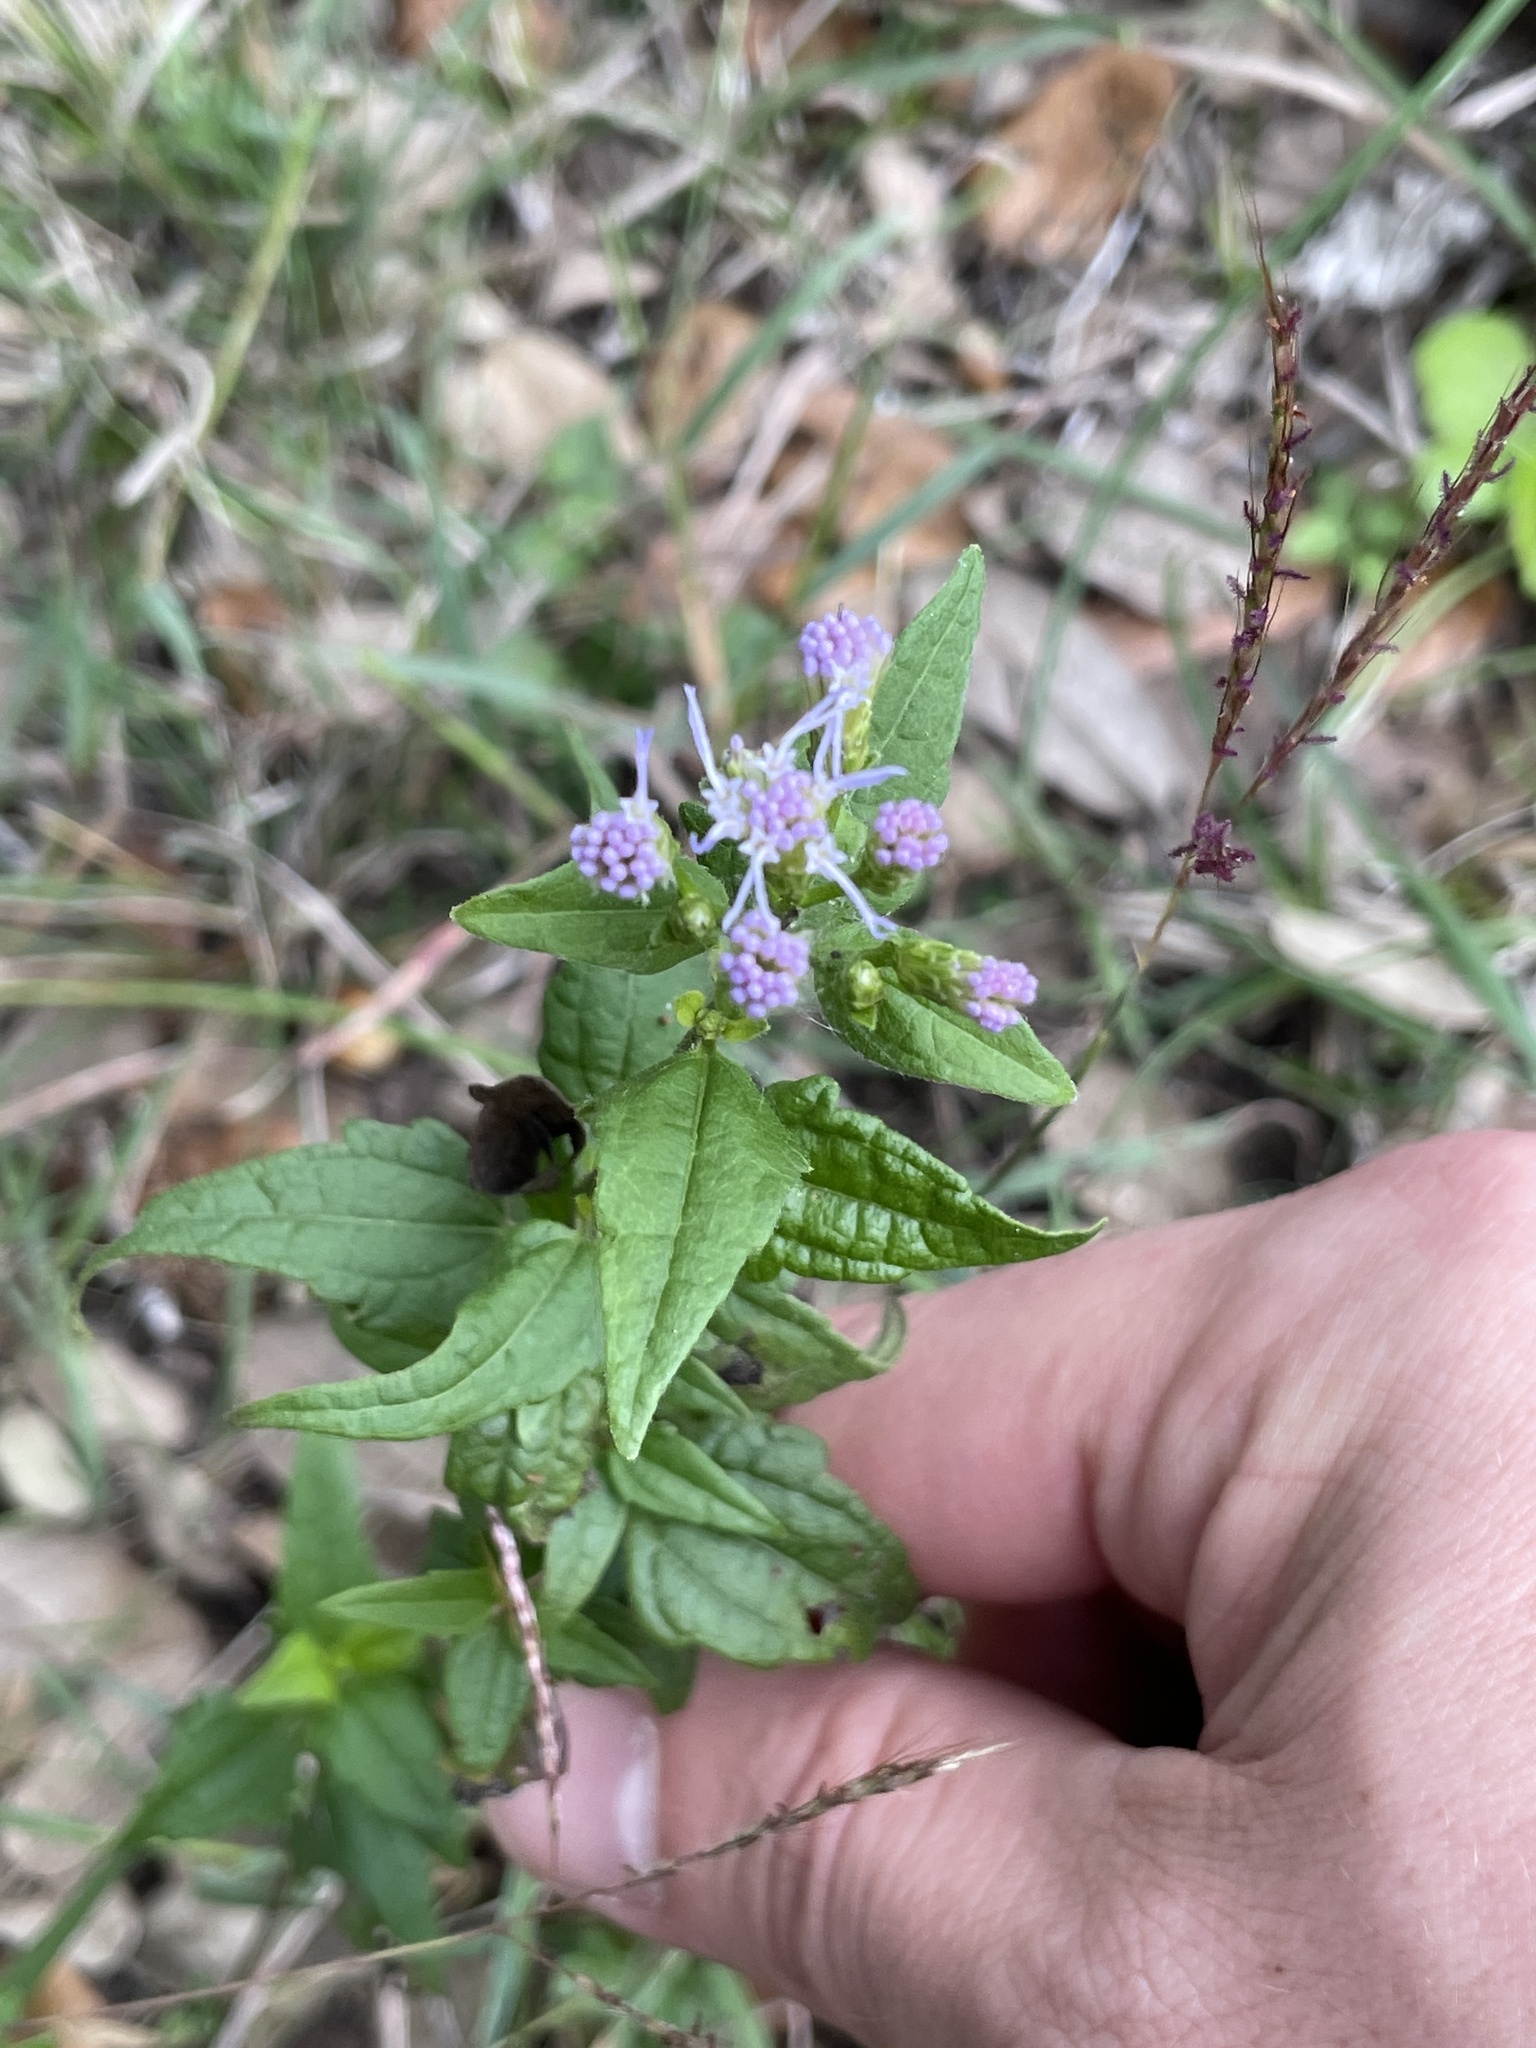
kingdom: Plantae
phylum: Tracheophyta
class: Magnoliopsida
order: Asterales
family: Asteraceae
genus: Chromolaena
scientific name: Chromolaena odorata
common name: Siamweed
